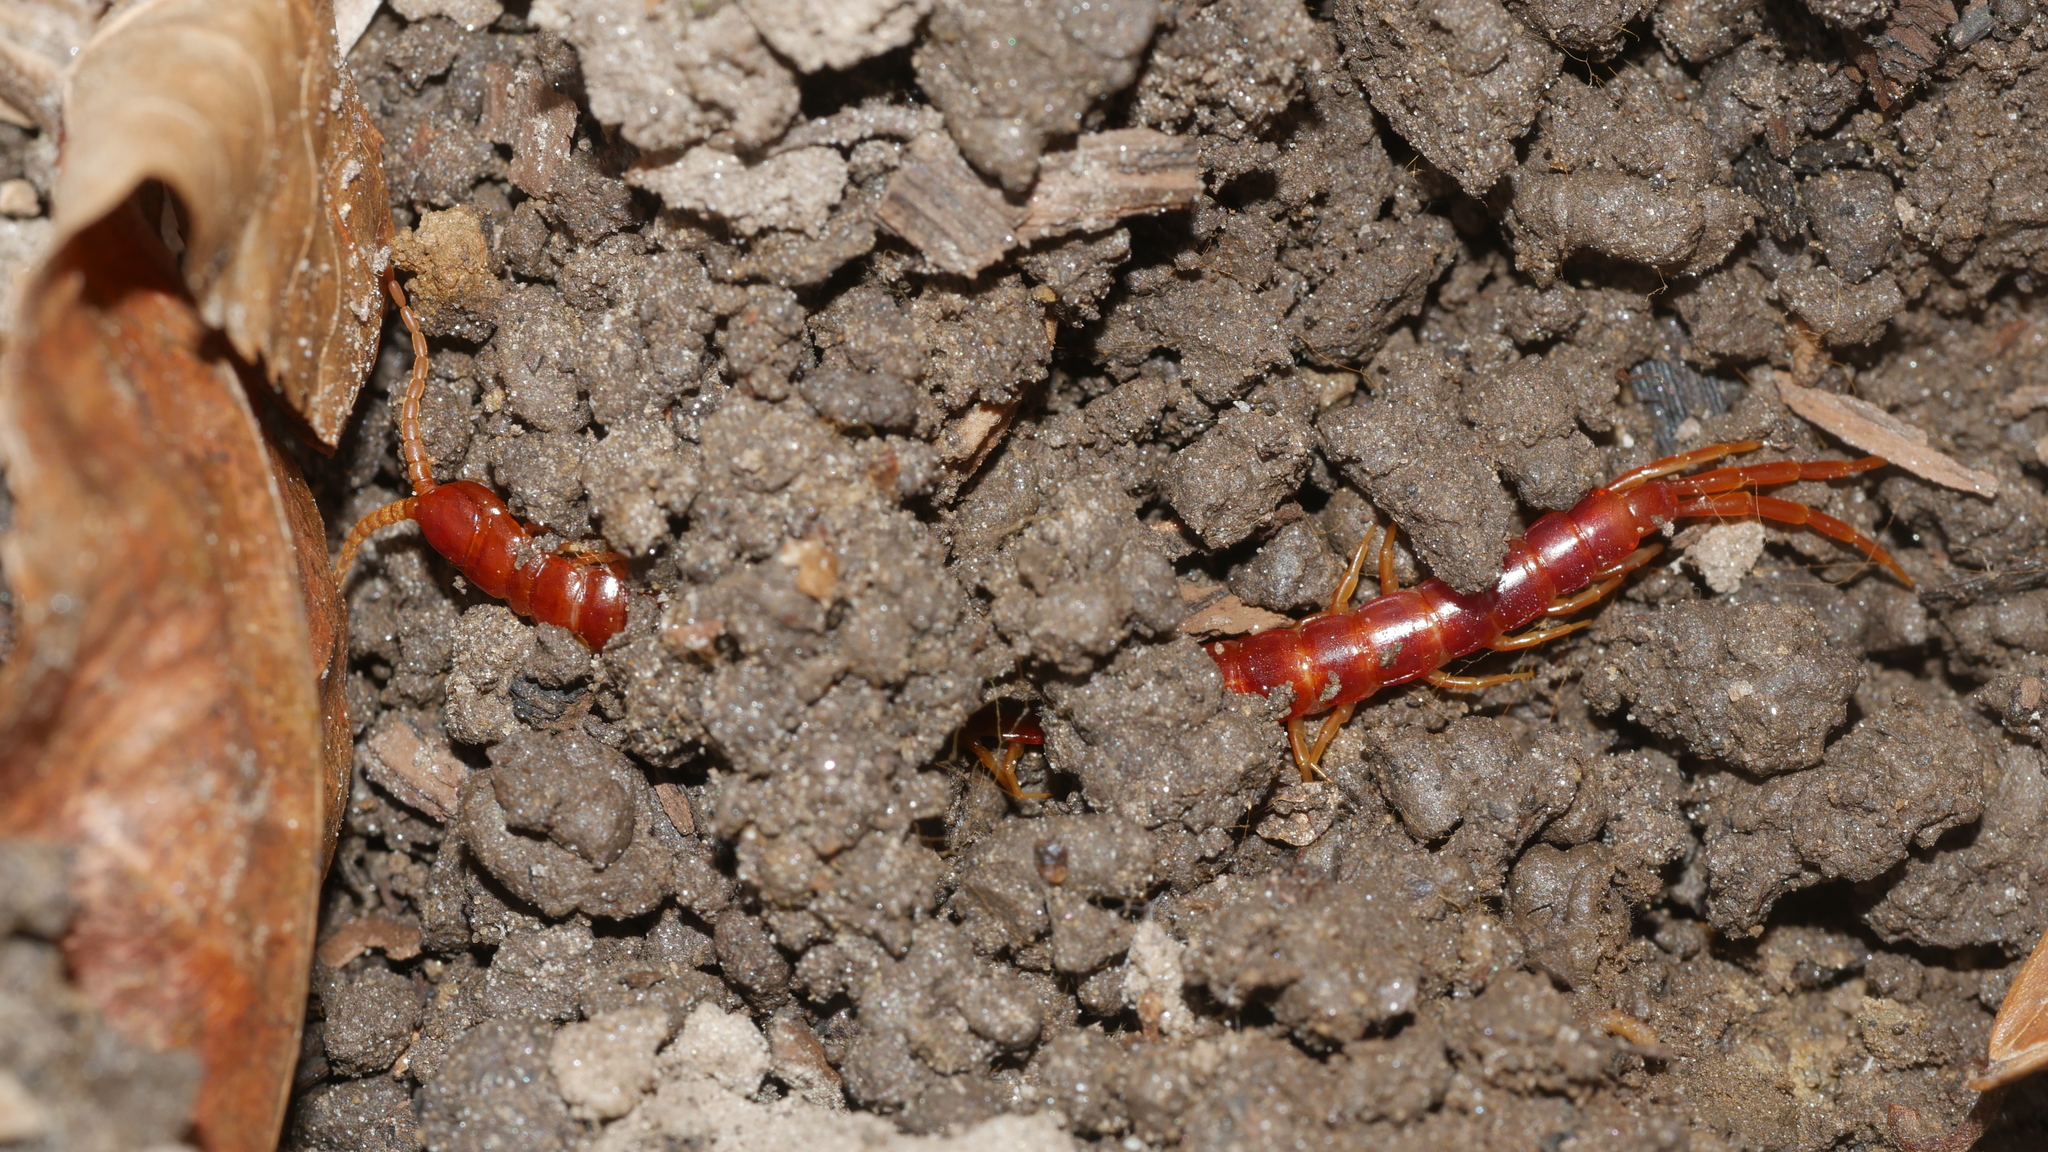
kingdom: Animalia
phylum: Arthropoda
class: Chilopoda
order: Scolopendromorpha
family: Scolopocryptopidae
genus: Scolopocryptops
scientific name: Scolopocryptops sexspinosus
